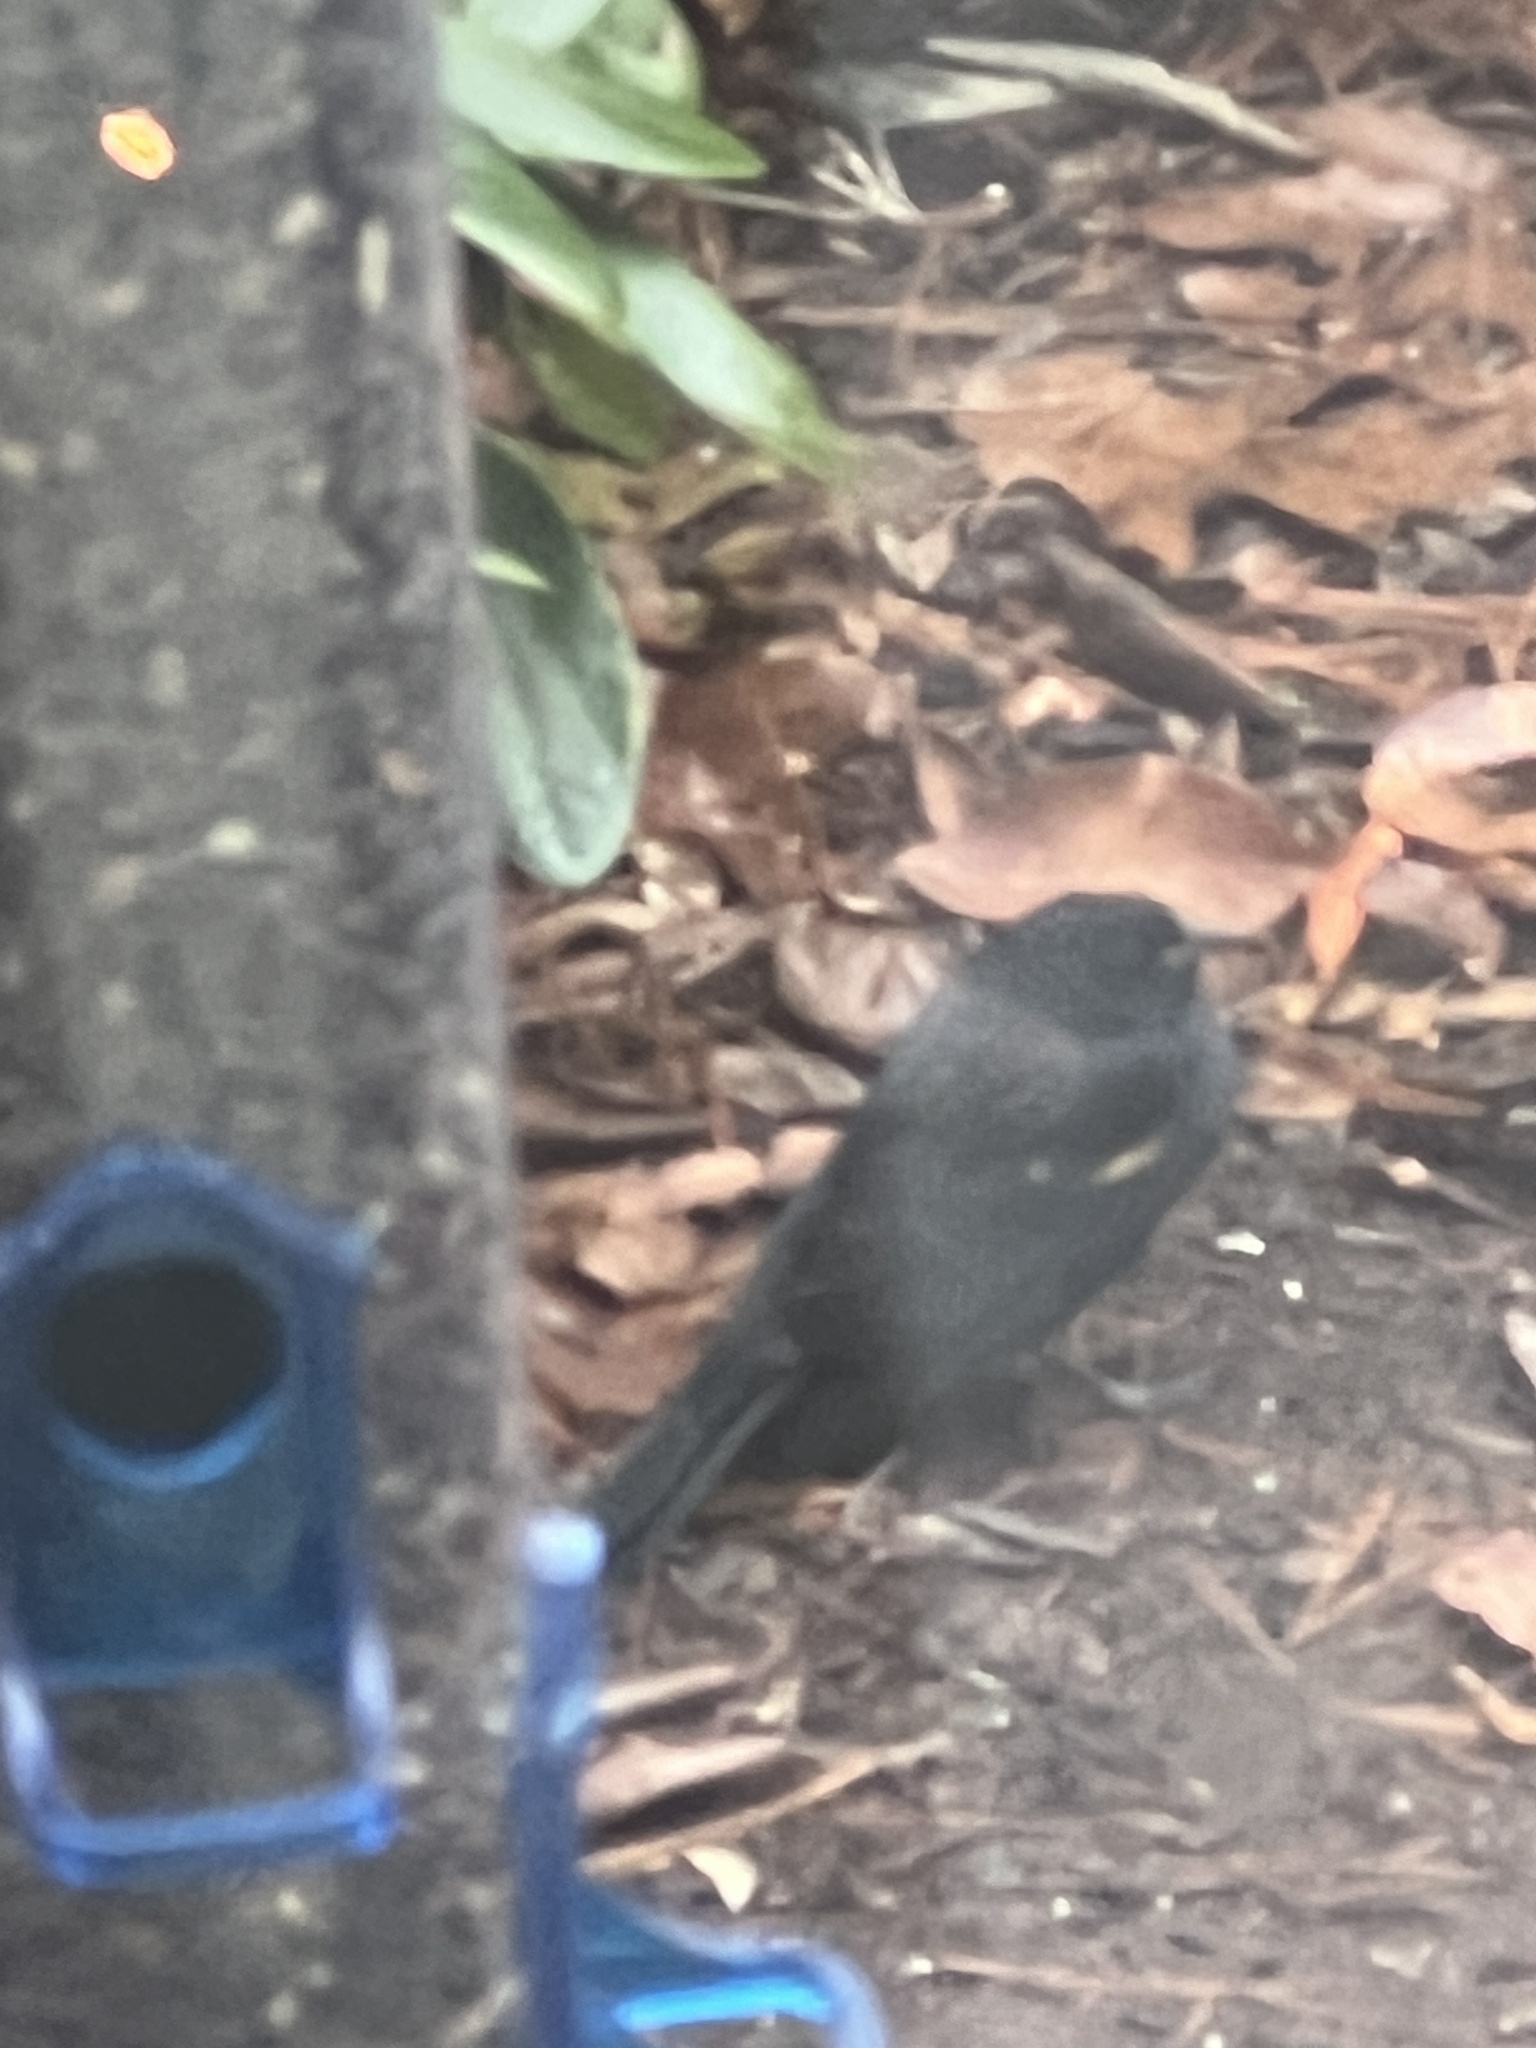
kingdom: Animalia
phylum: Chordata
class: Aves
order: Passeriformes
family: Icteridae
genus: Agelaius
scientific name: Agelaius phoeniceus
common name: Red-winged blackbird
